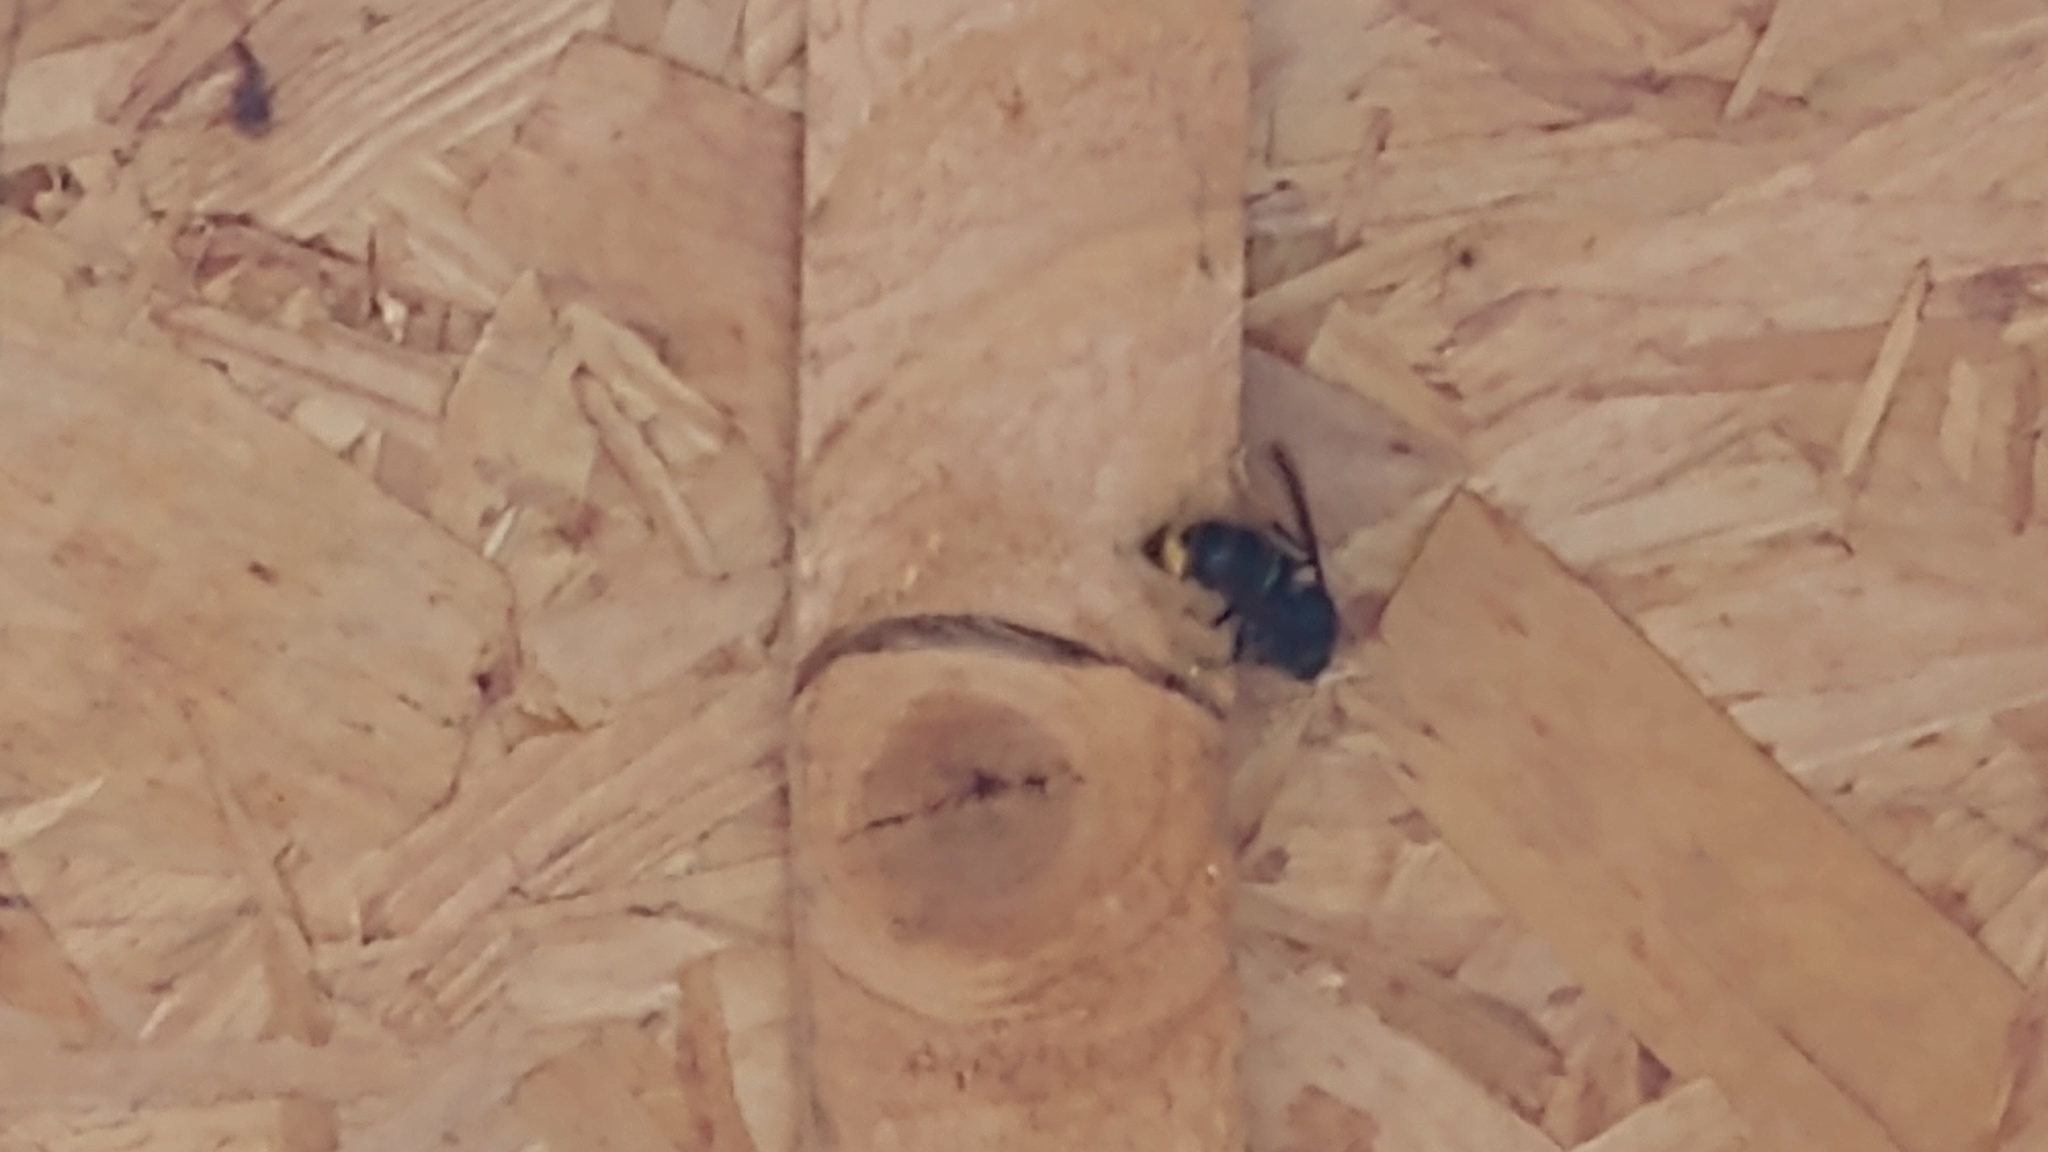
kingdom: Animalia
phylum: Arthropoda
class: Insecta
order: Hymenoptera
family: Vespidae
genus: Vespa
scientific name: Vespa velutina
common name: Asian hornet
